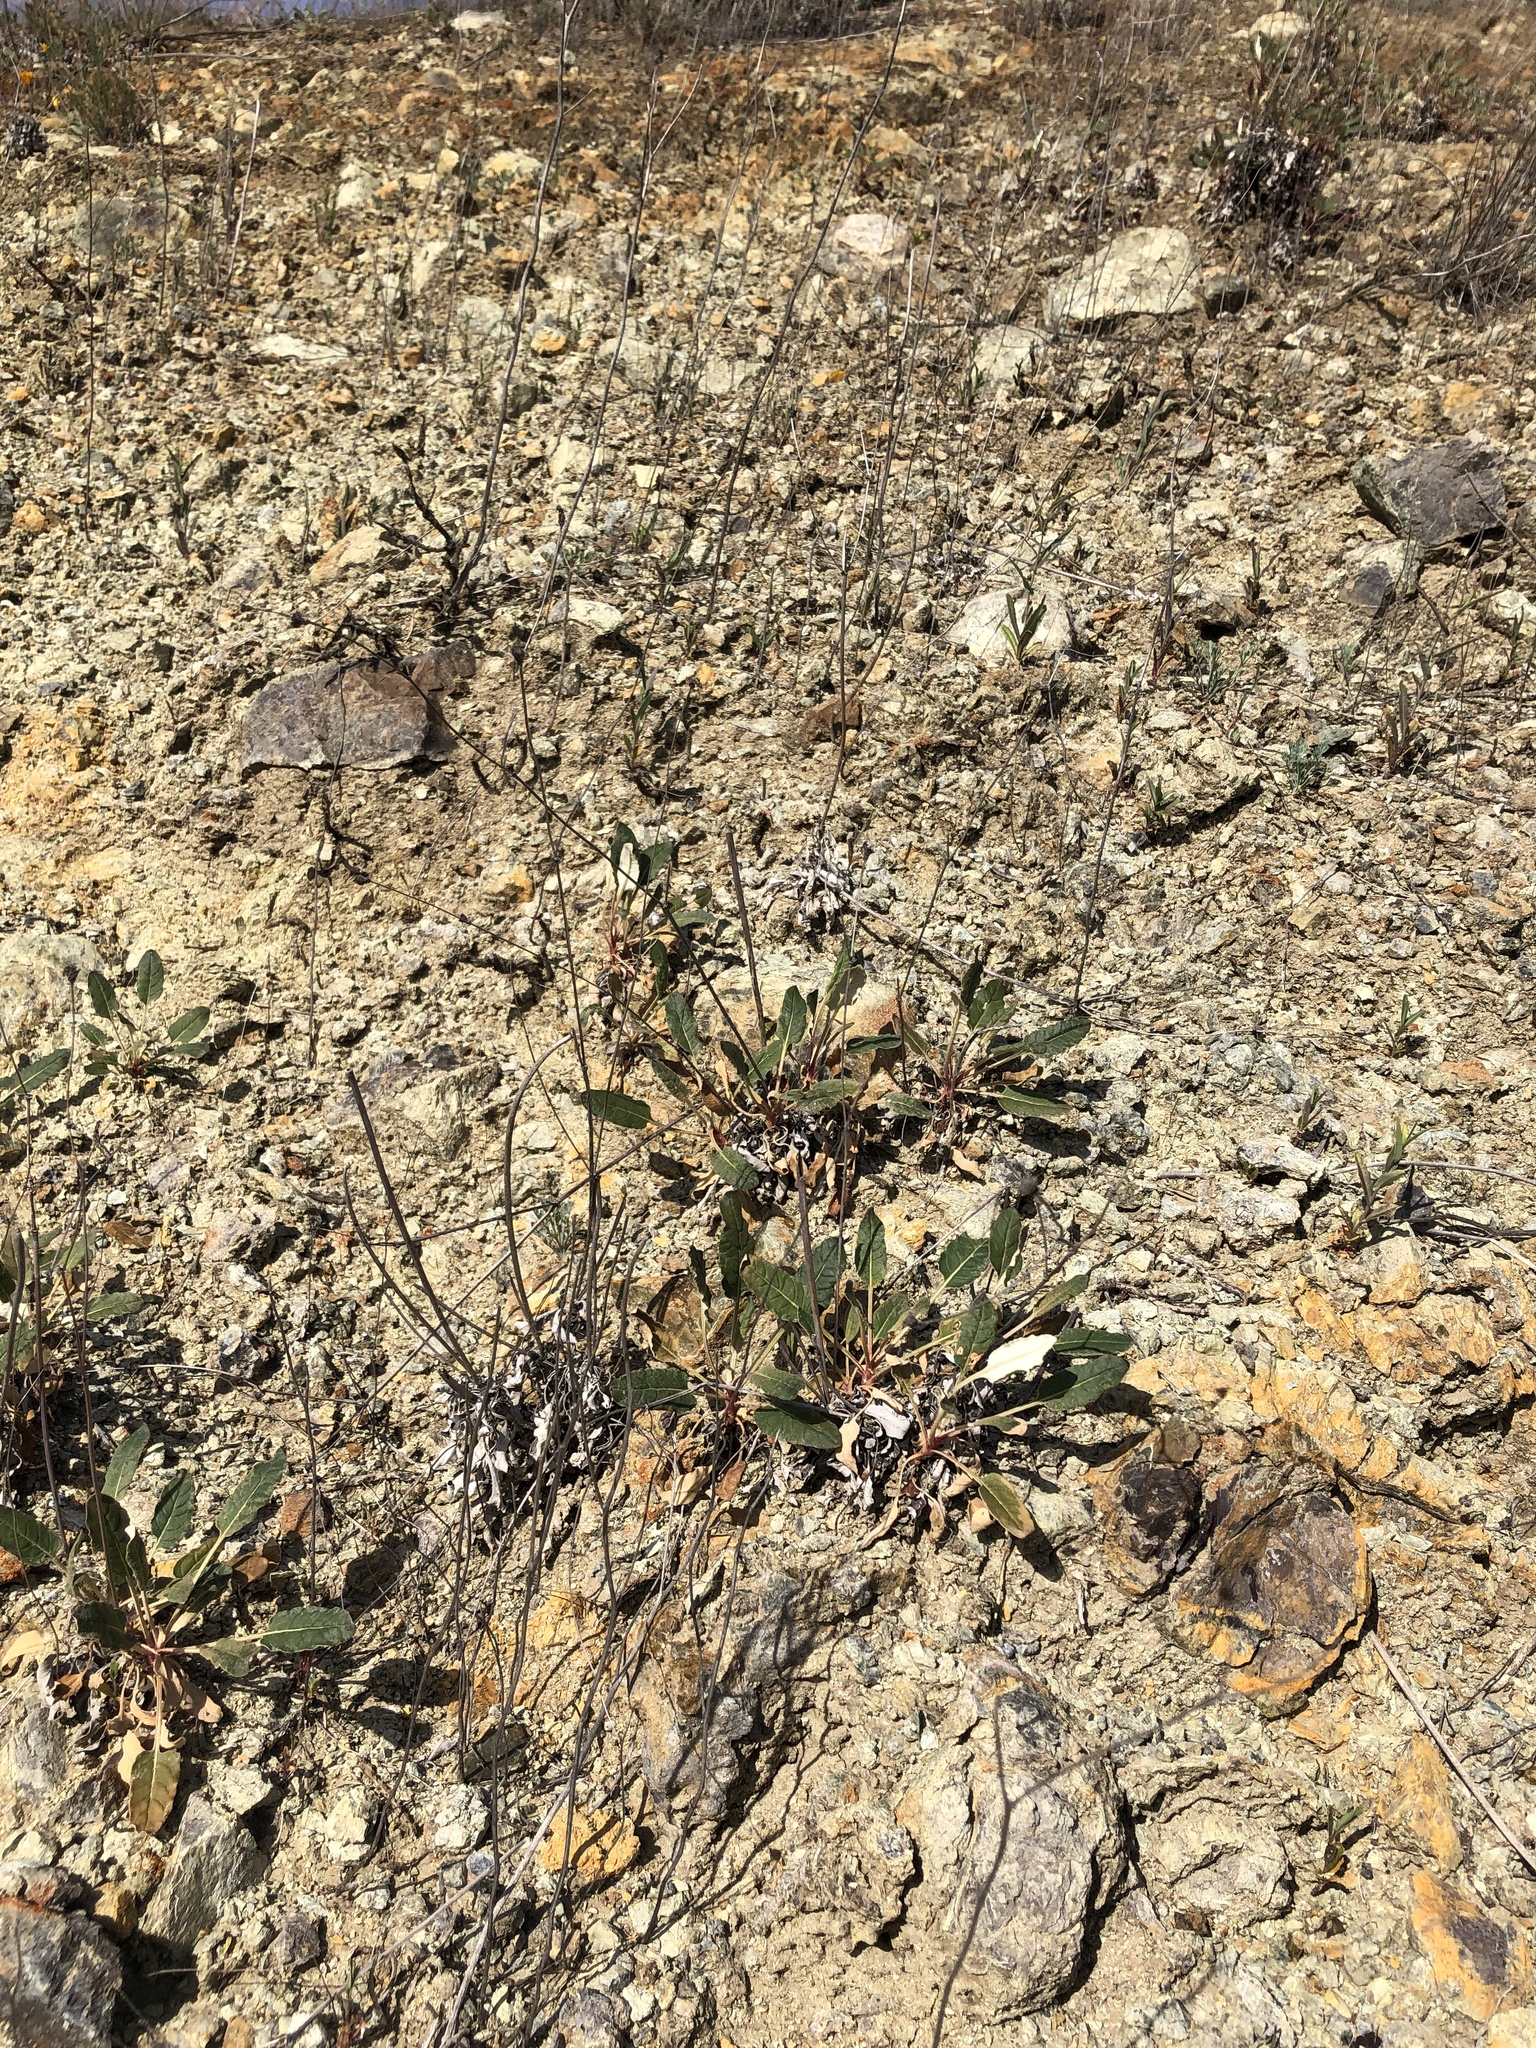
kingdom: Plantae
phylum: Tracheophyta
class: Magnoliopsida
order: Caryophyllales
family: Polygonaceae
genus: Eriogonum
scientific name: Eriogonum nudum
